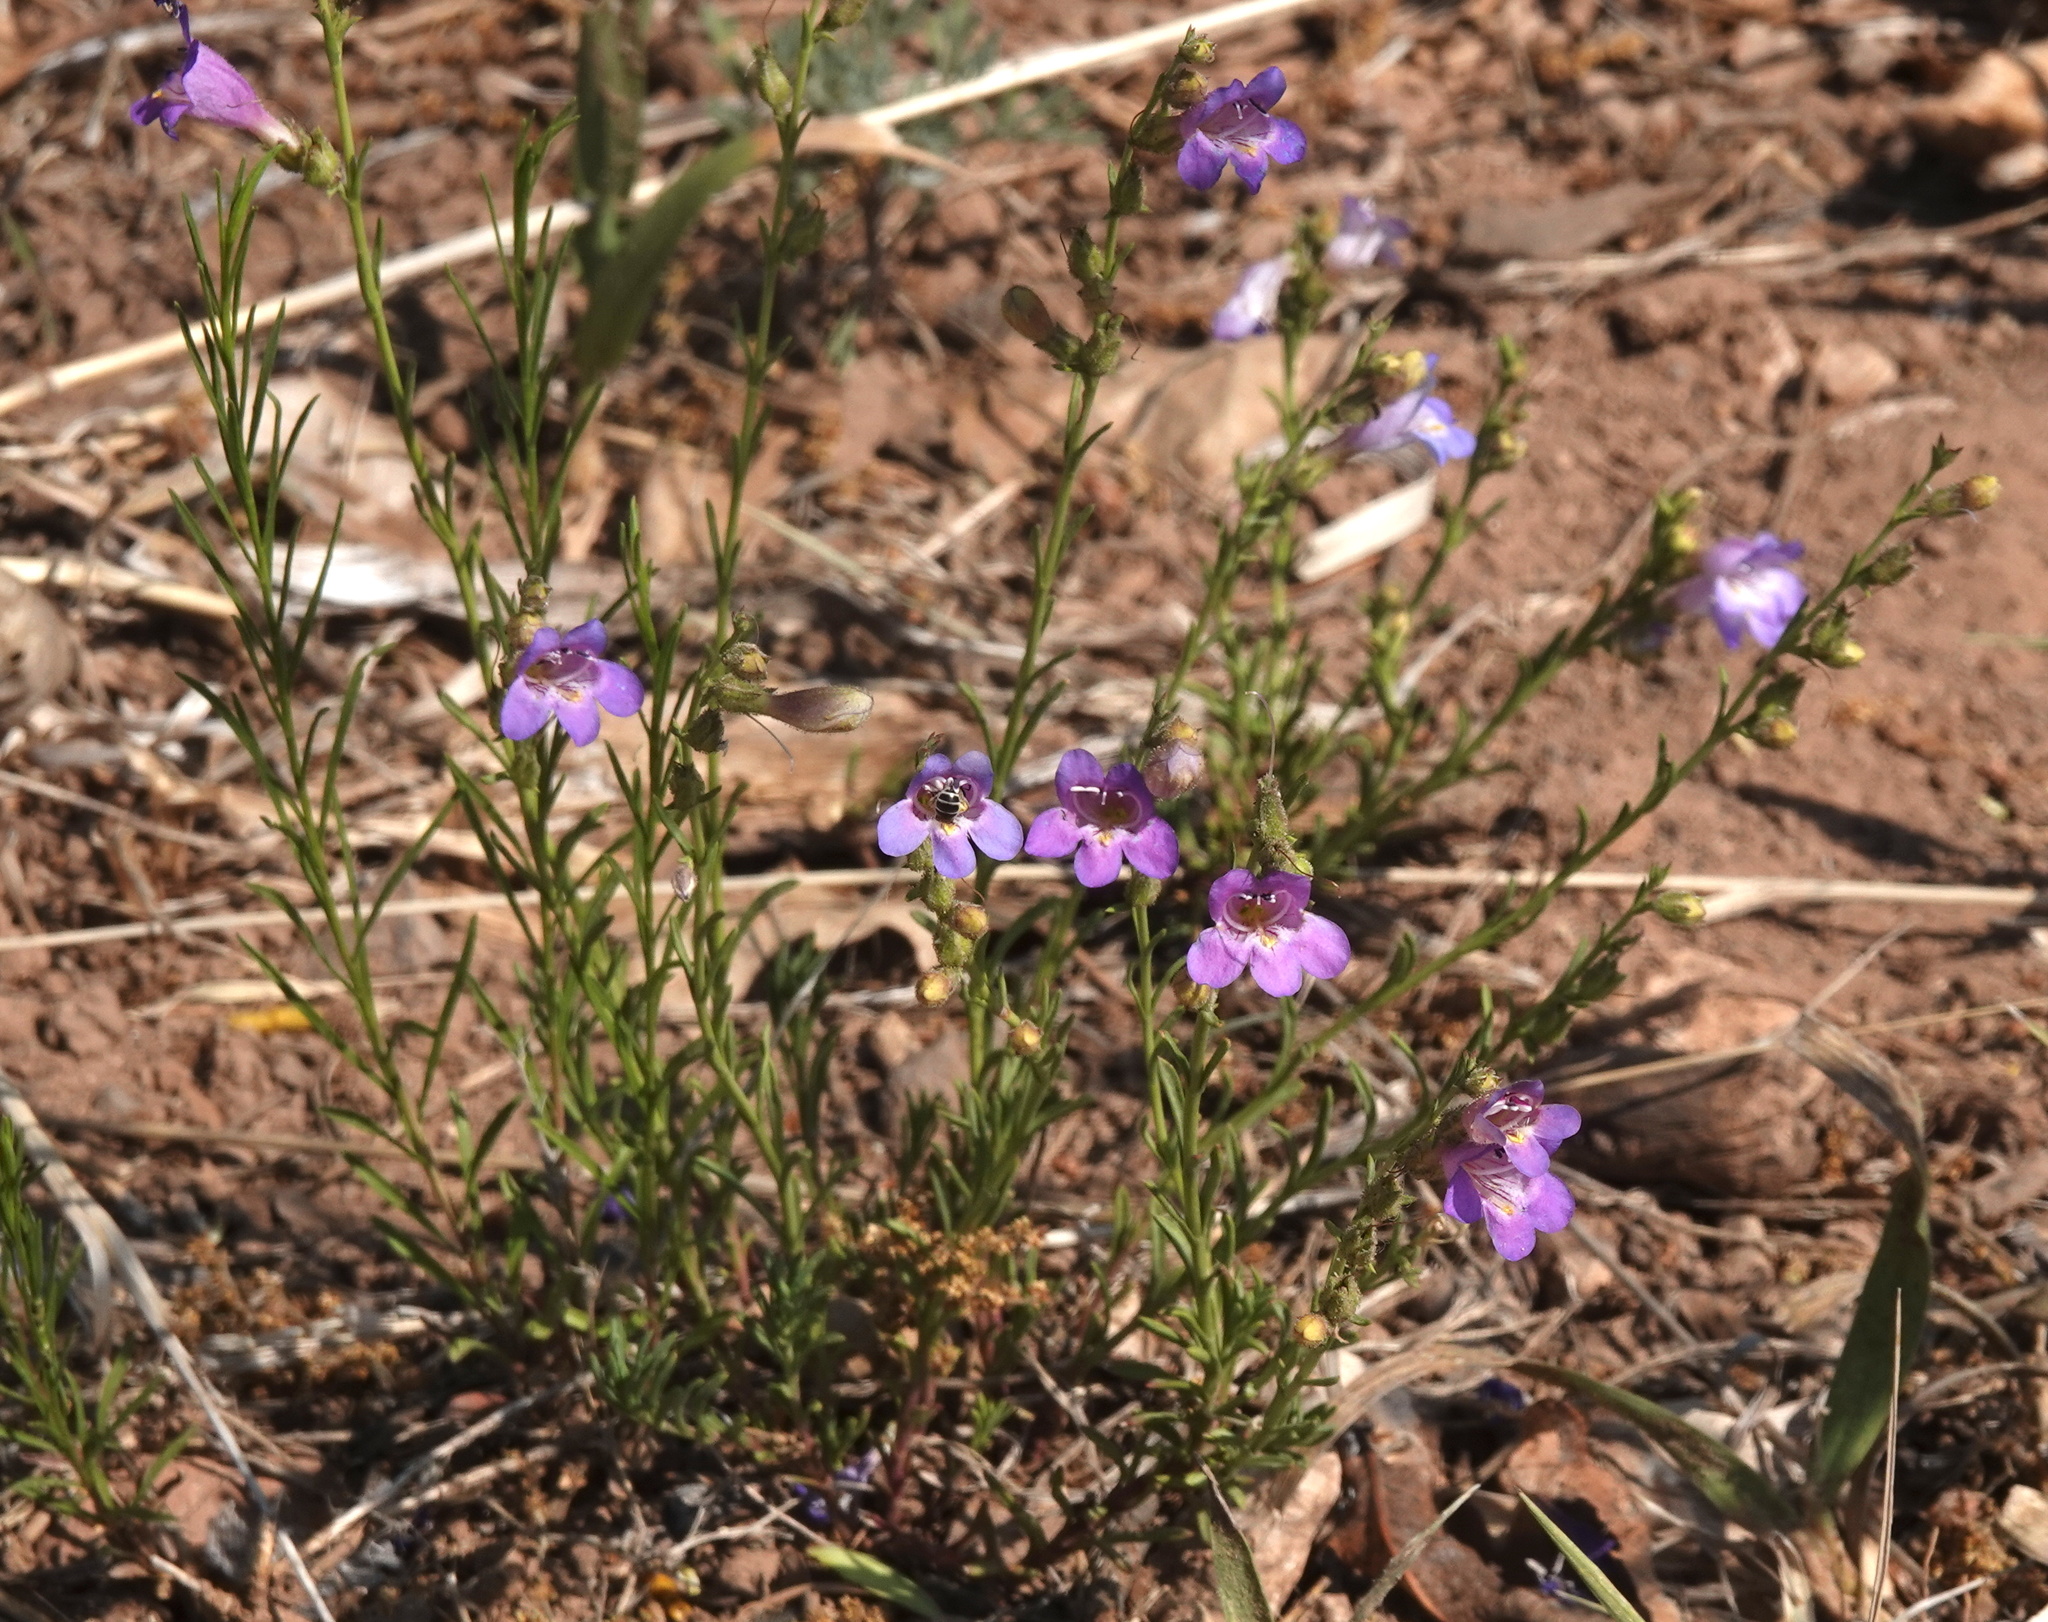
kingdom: Plantae
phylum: Tracheophyta
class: Magnoliopsida
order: Lamiales
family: Plantaginaceae
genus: Penstemon
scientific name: Penstemon linarioides
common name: Siler's penstemon
